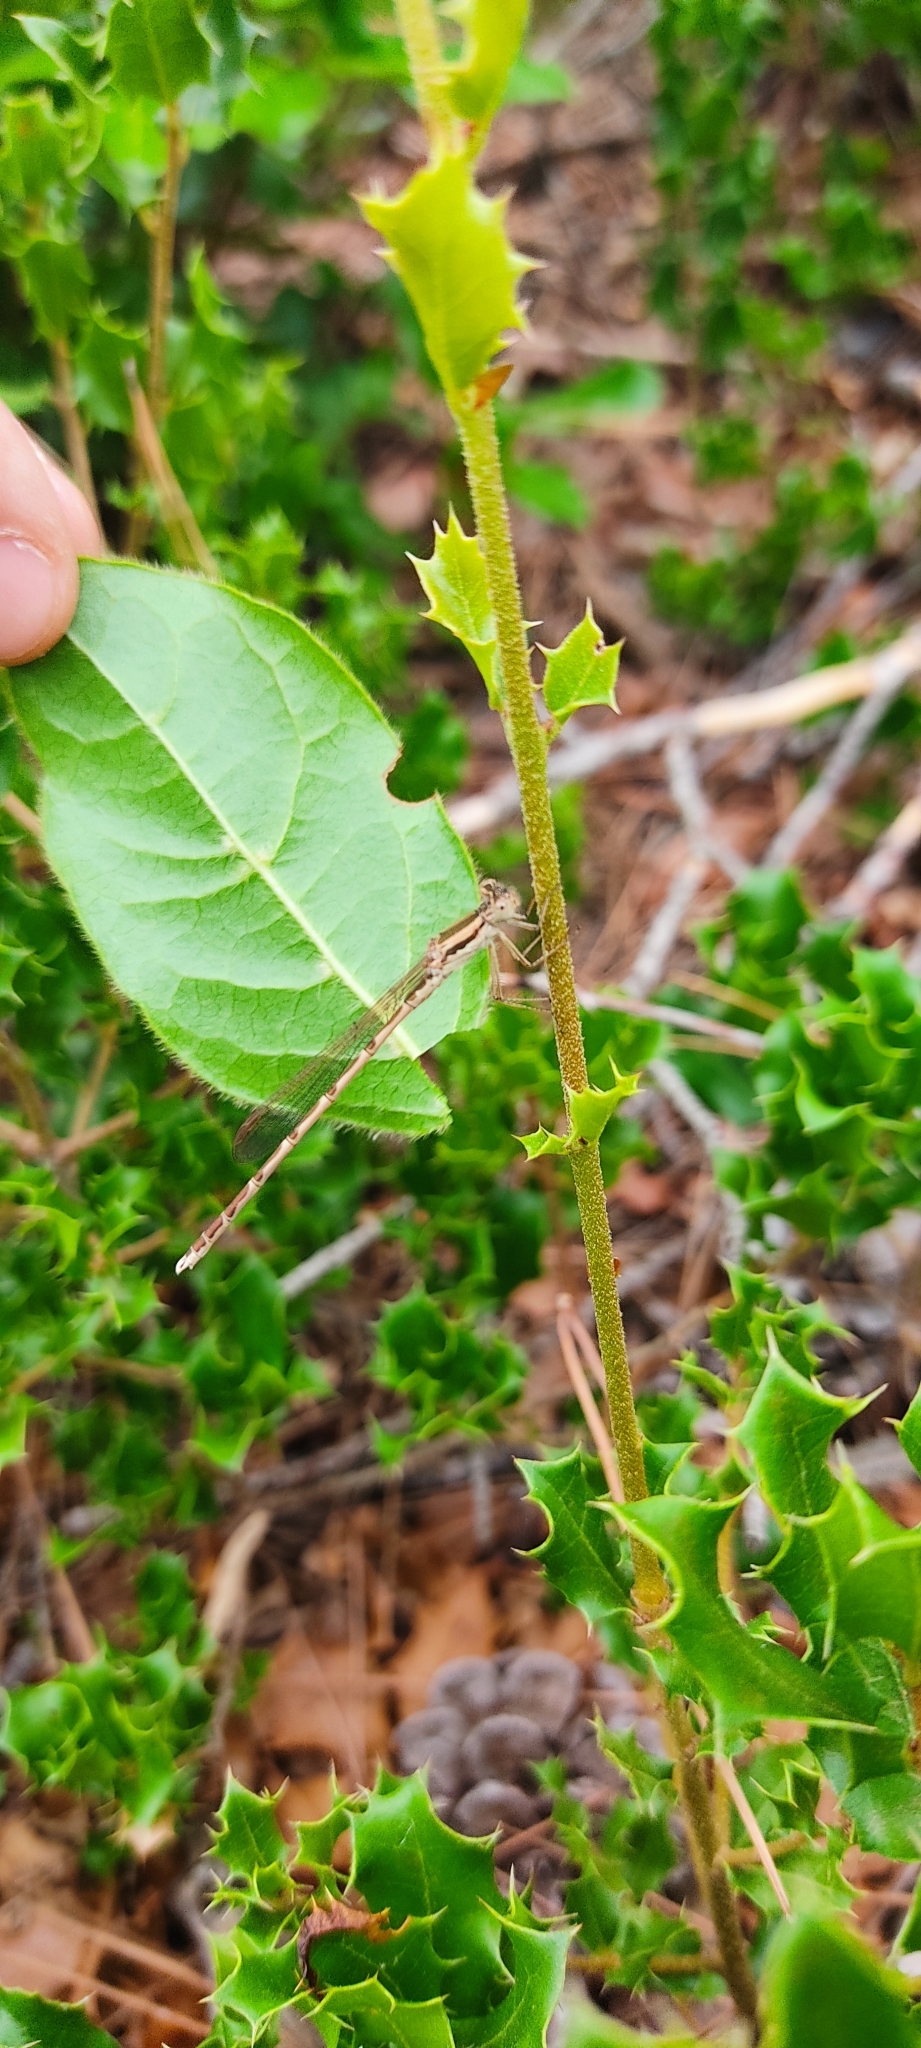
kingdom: Animalia
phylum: Arthropoda
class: Insecta
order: Odonata
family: Lestidae
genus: Sympecma
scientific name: Sympecma fusca
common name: Common winter damsel
